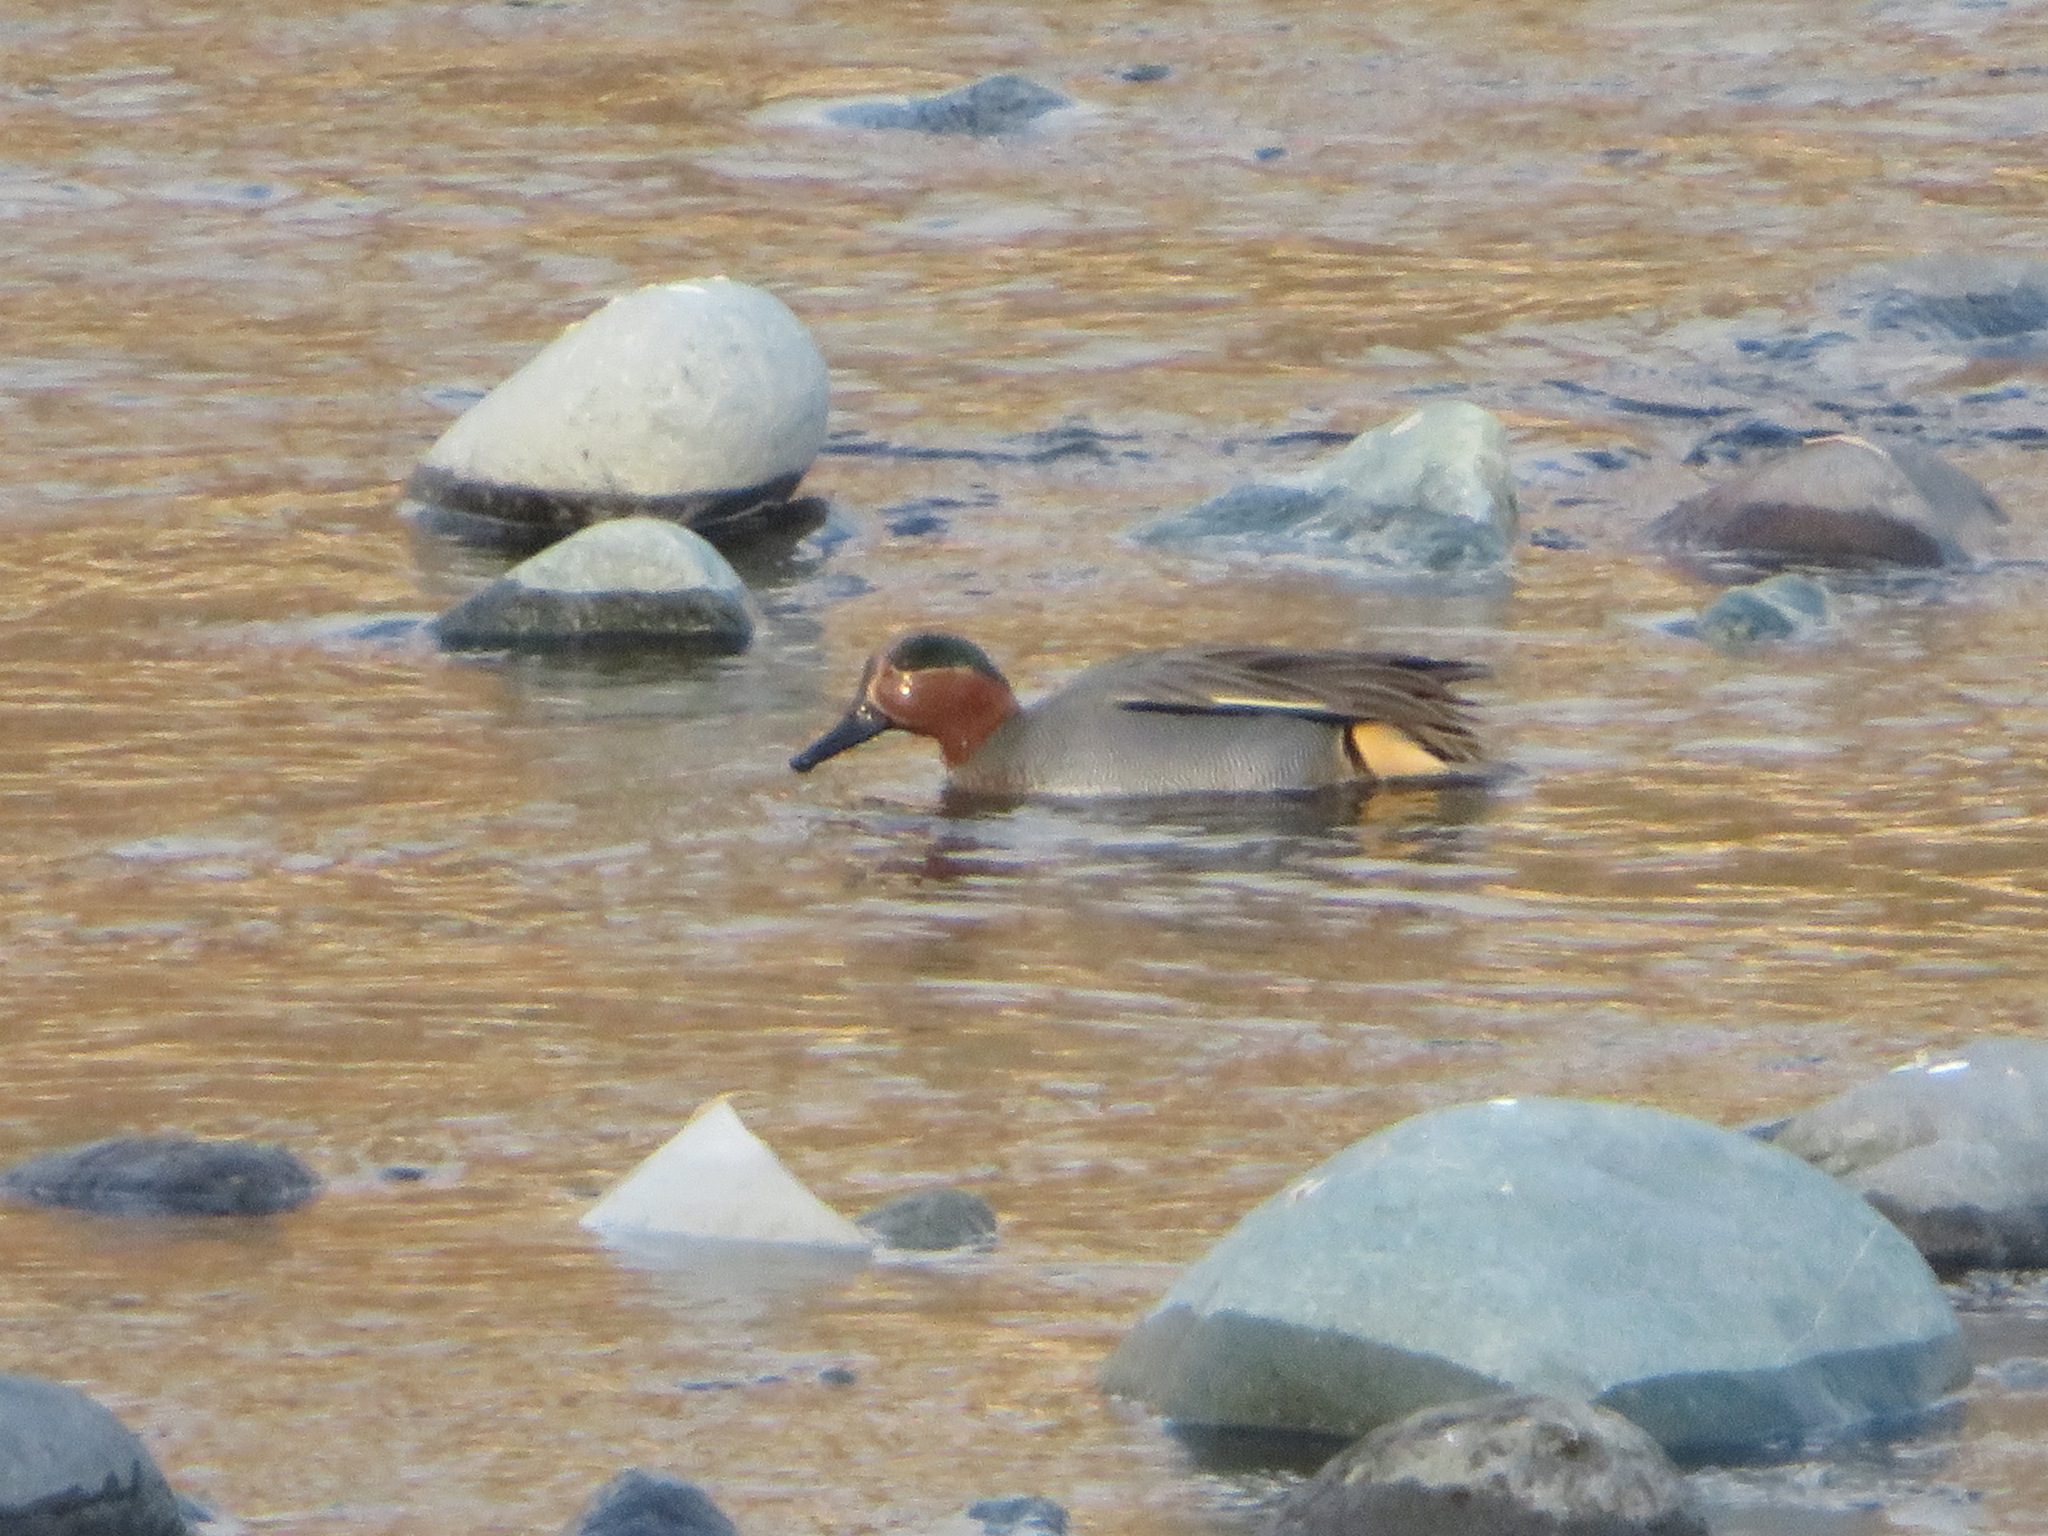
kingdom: Animalia
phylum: Chordata
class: Aves
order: Anseriformes
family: Anatidae
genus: Anas
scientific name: Anas crecca
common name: Eurasian teal
